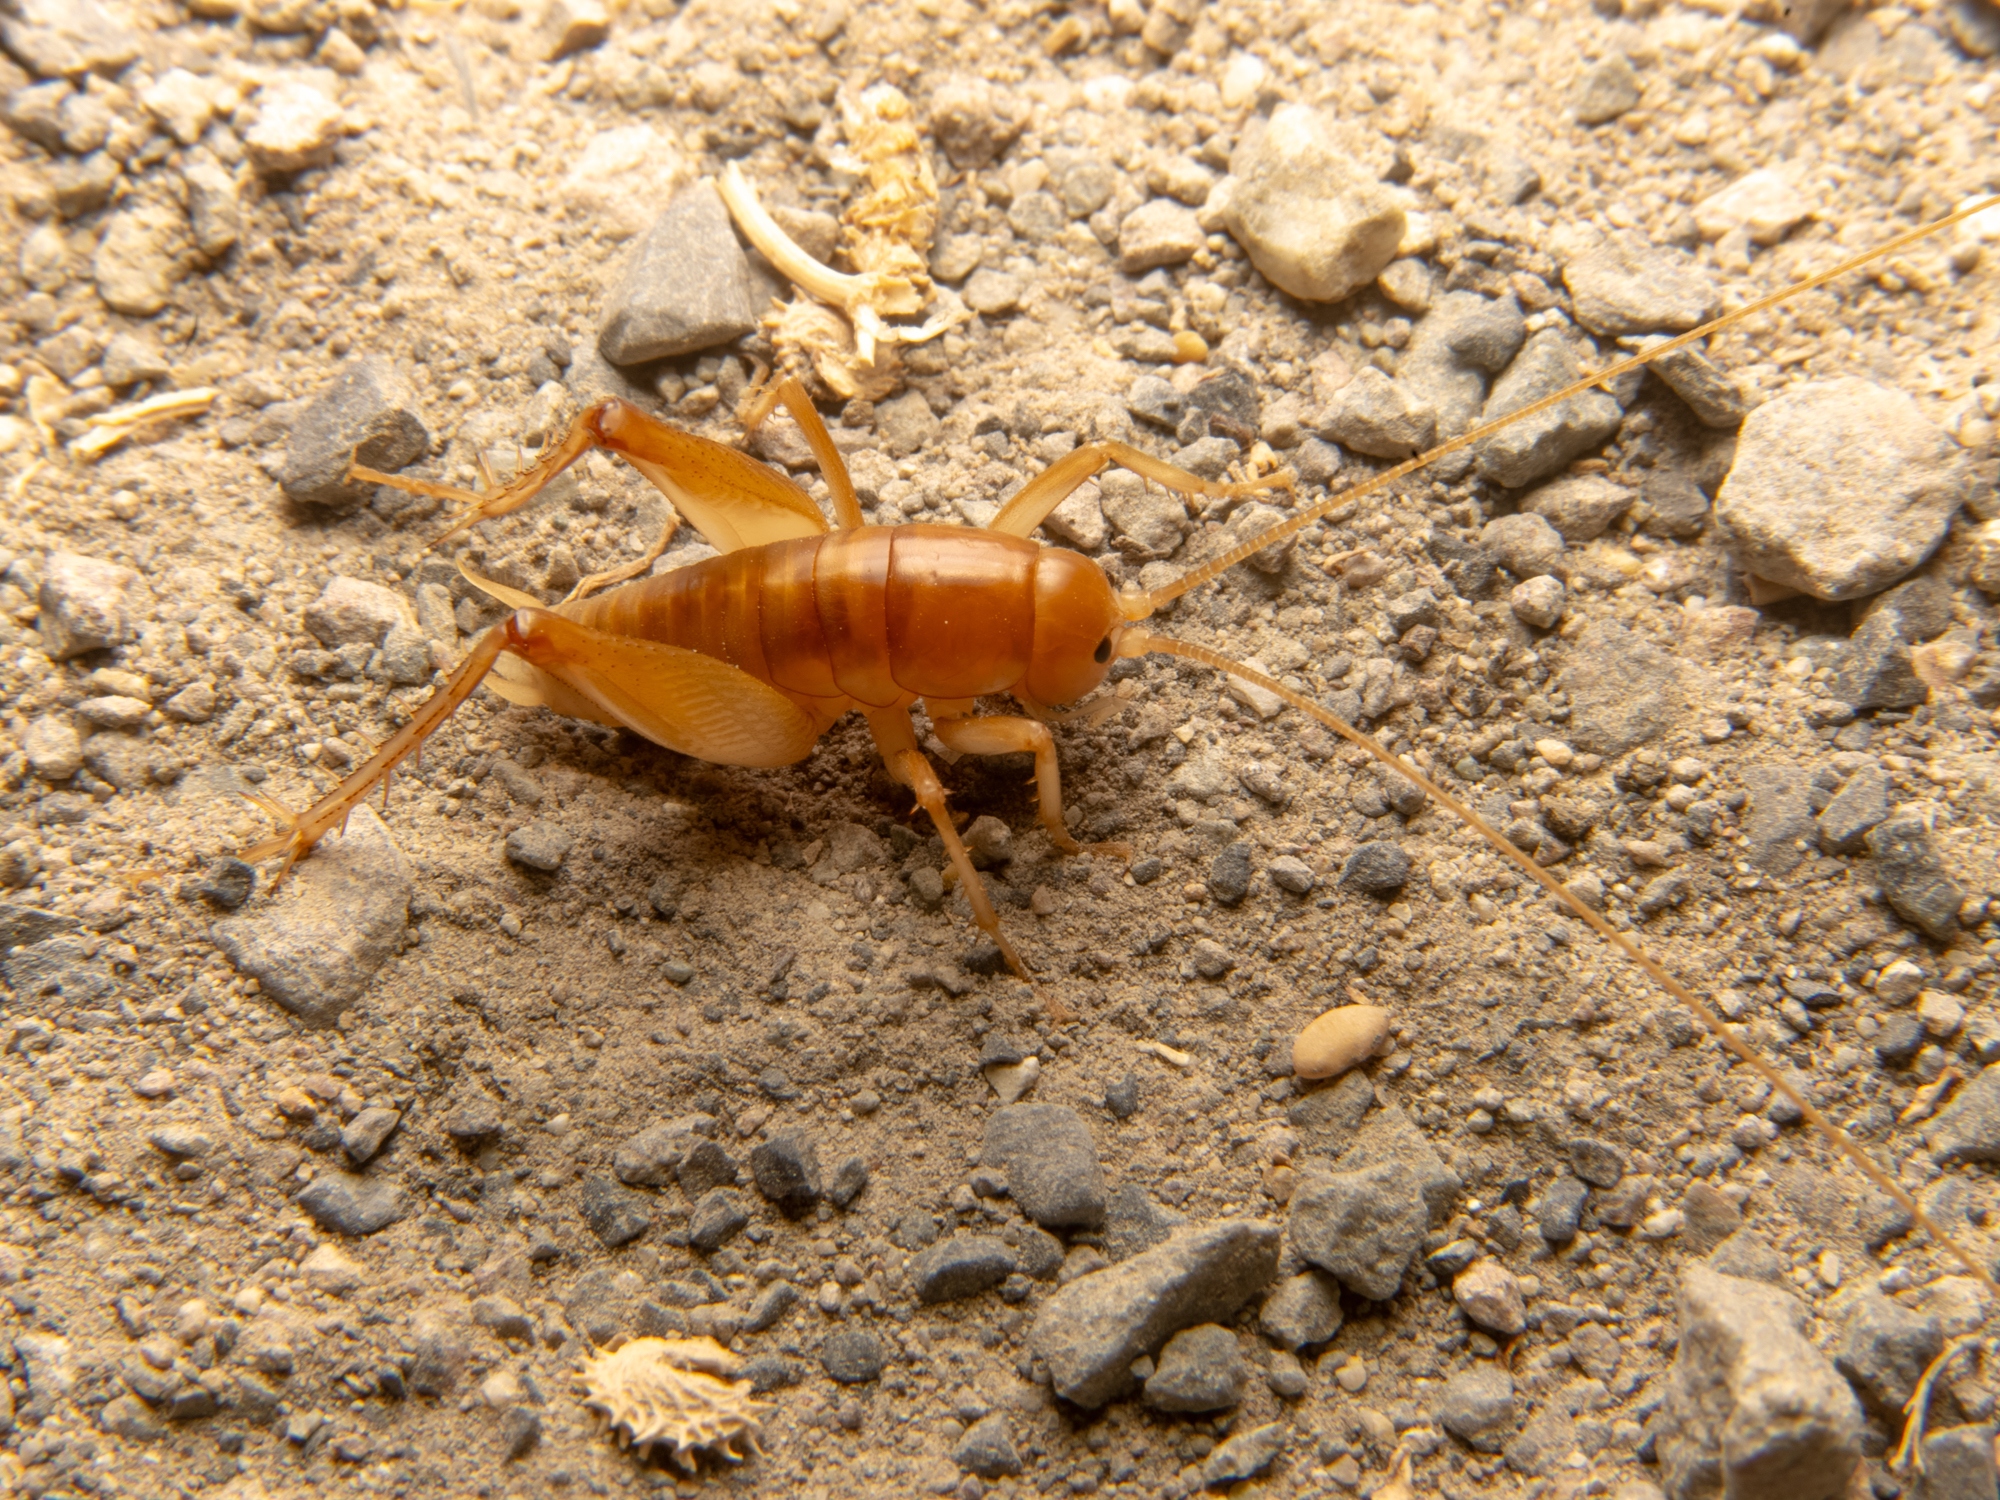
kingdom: Animalia
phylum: Arthropoda
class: Insecta
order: Orthoptera
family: Rhaphidophoridae
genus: Ceuthophilus
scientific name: Ceuthophilus californianus
